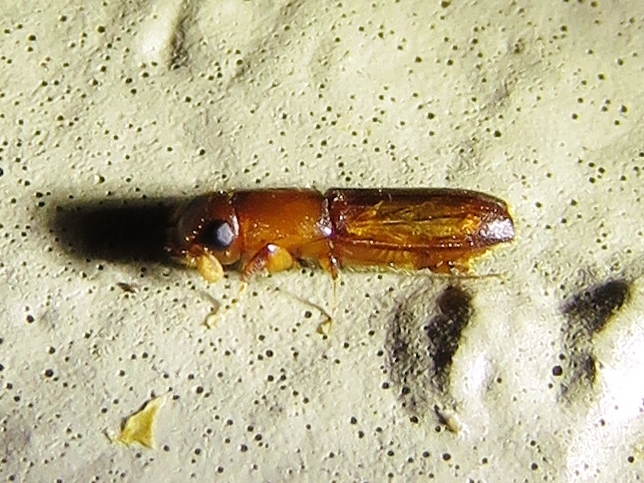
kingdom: Animalia
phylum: Arthropoda
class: Insecta
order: Coleoptera
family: Curculionidae
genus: Euplatypus
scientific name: Euplatypus compositus
